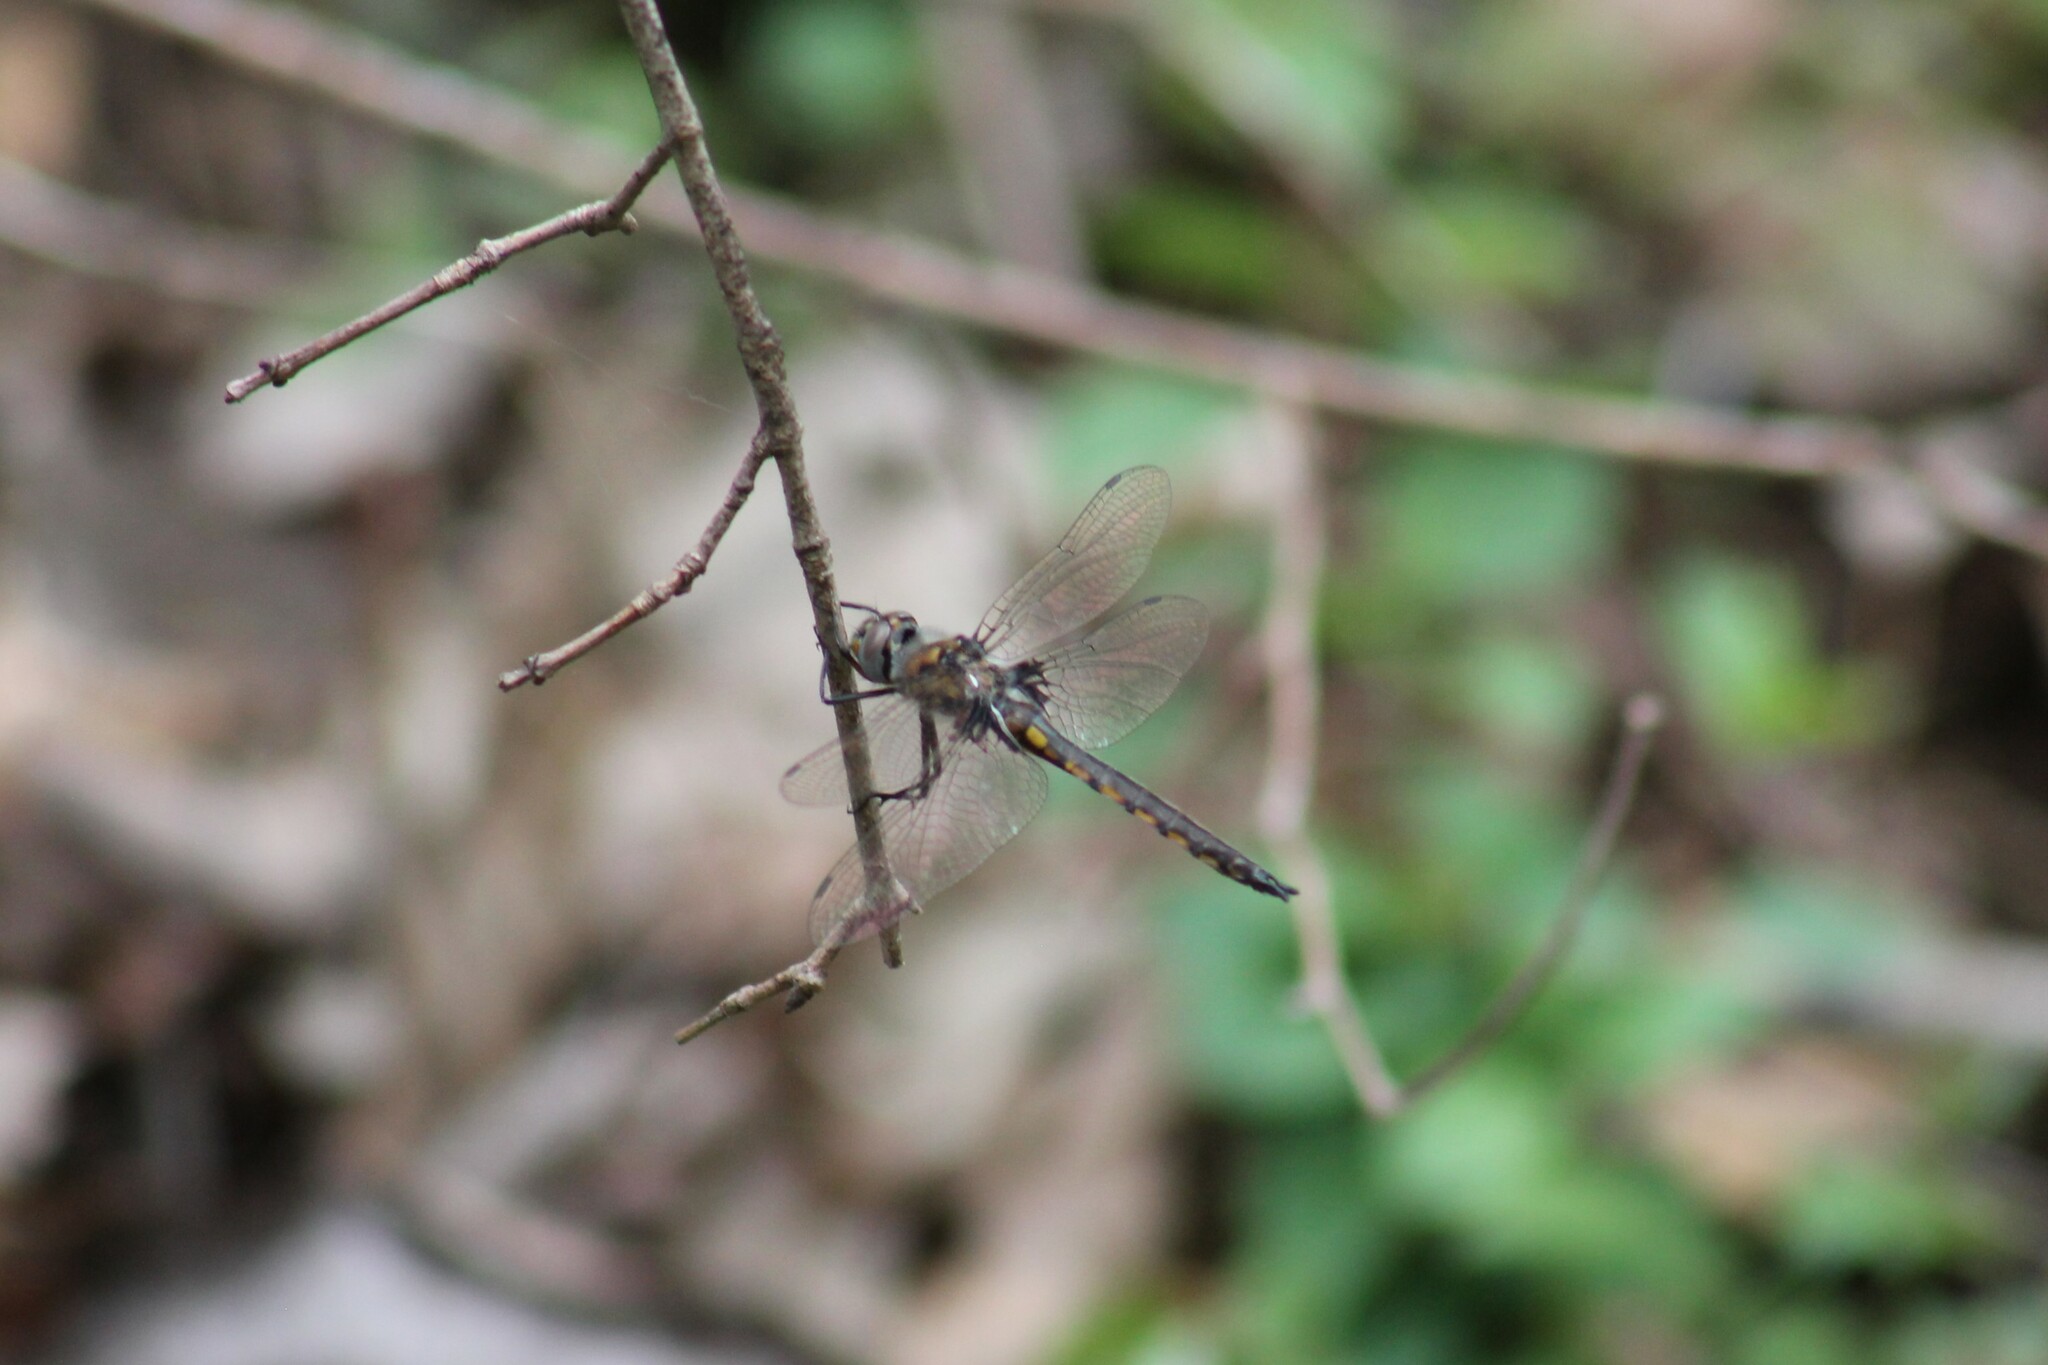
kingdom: Animalia
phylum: Arthropoda
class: Insecta
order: Odonata
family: Corduliidae
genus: Epitheca
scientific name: Epitheca cynosura
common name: Common baskettail
